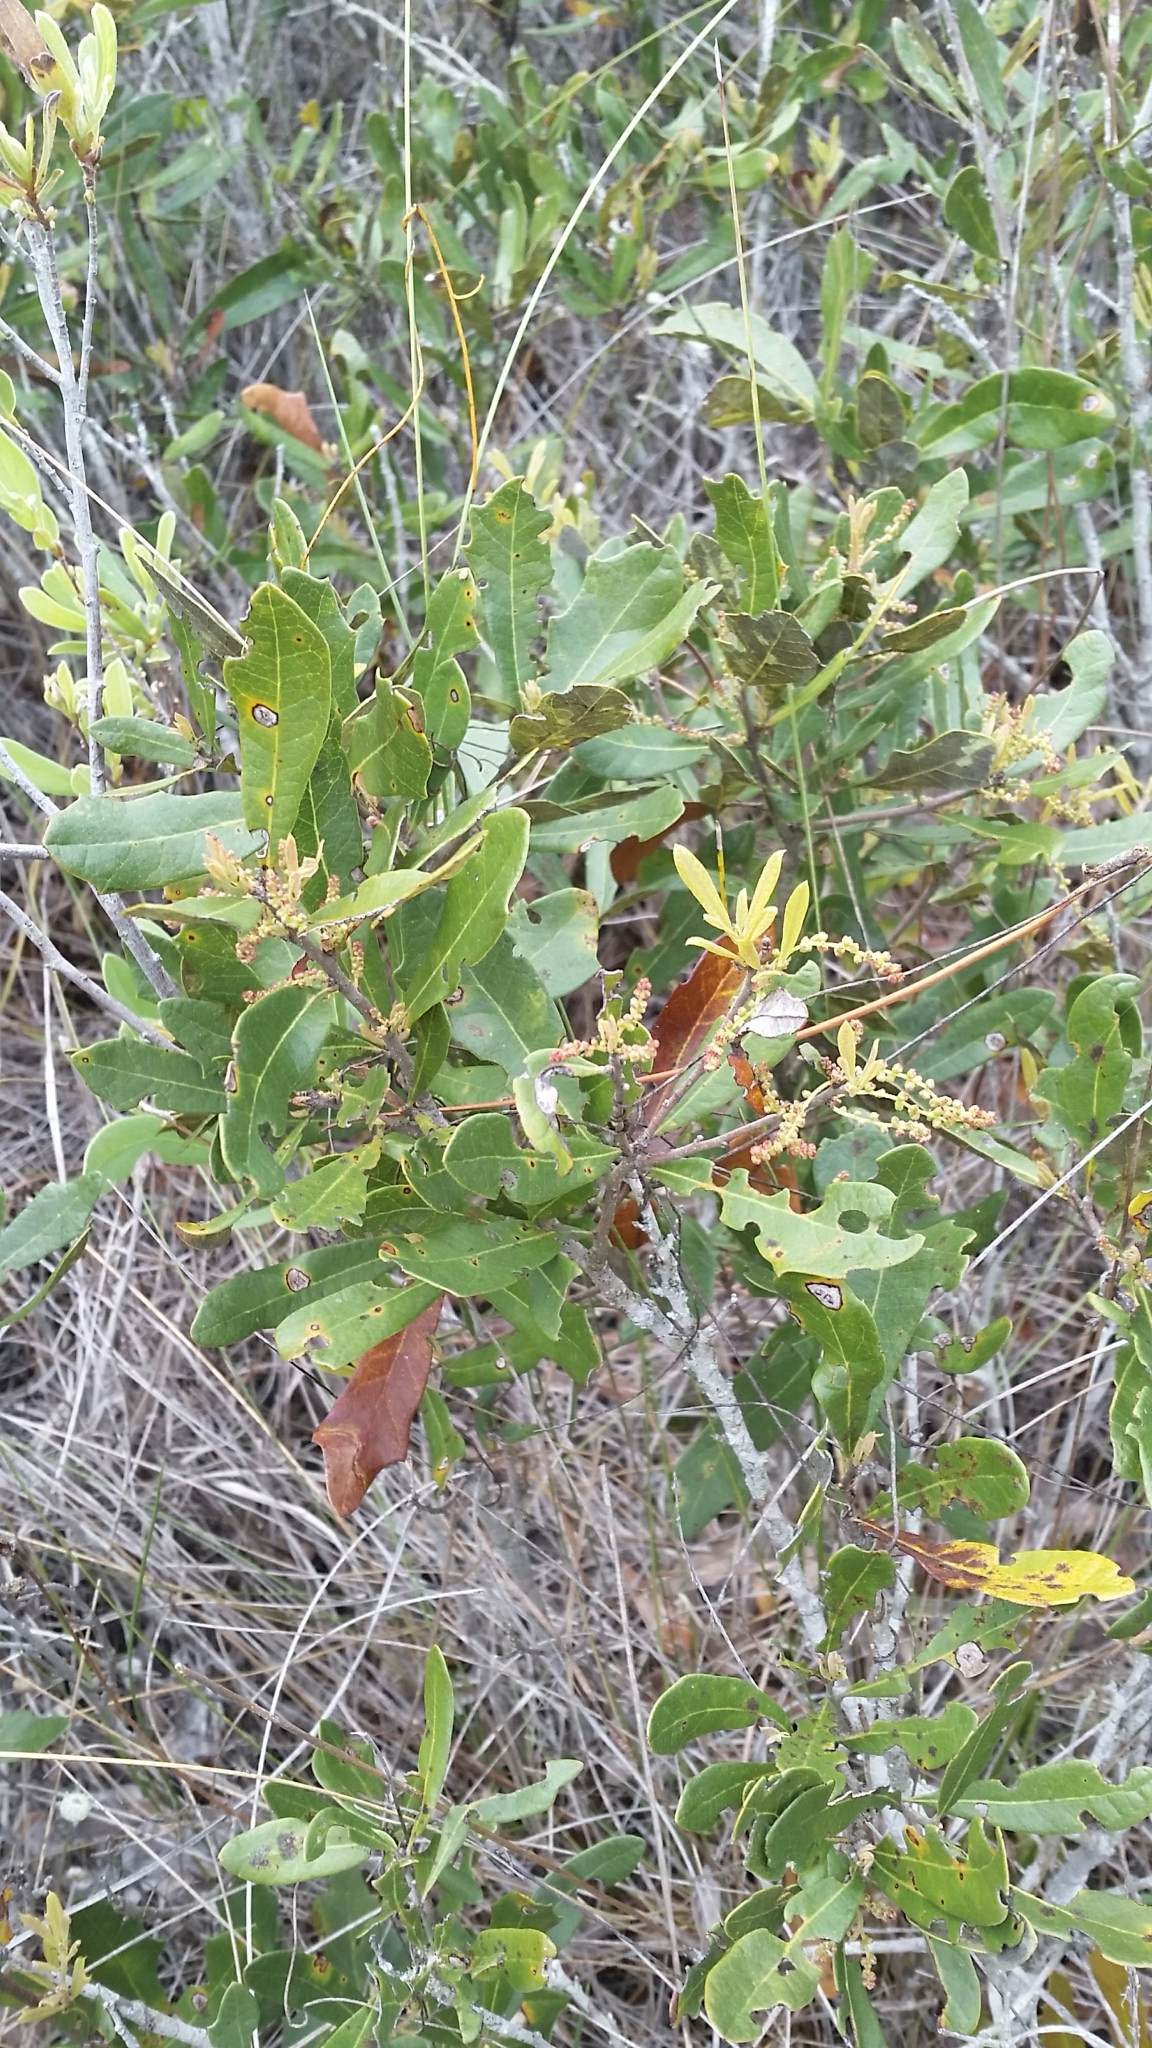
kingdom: Plantae
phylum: Tracheophyta
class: Magnoliopsida
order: Fagales
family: Fagaceae
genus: Quercus
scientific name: Quercus minima
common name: Dwarf live oak
